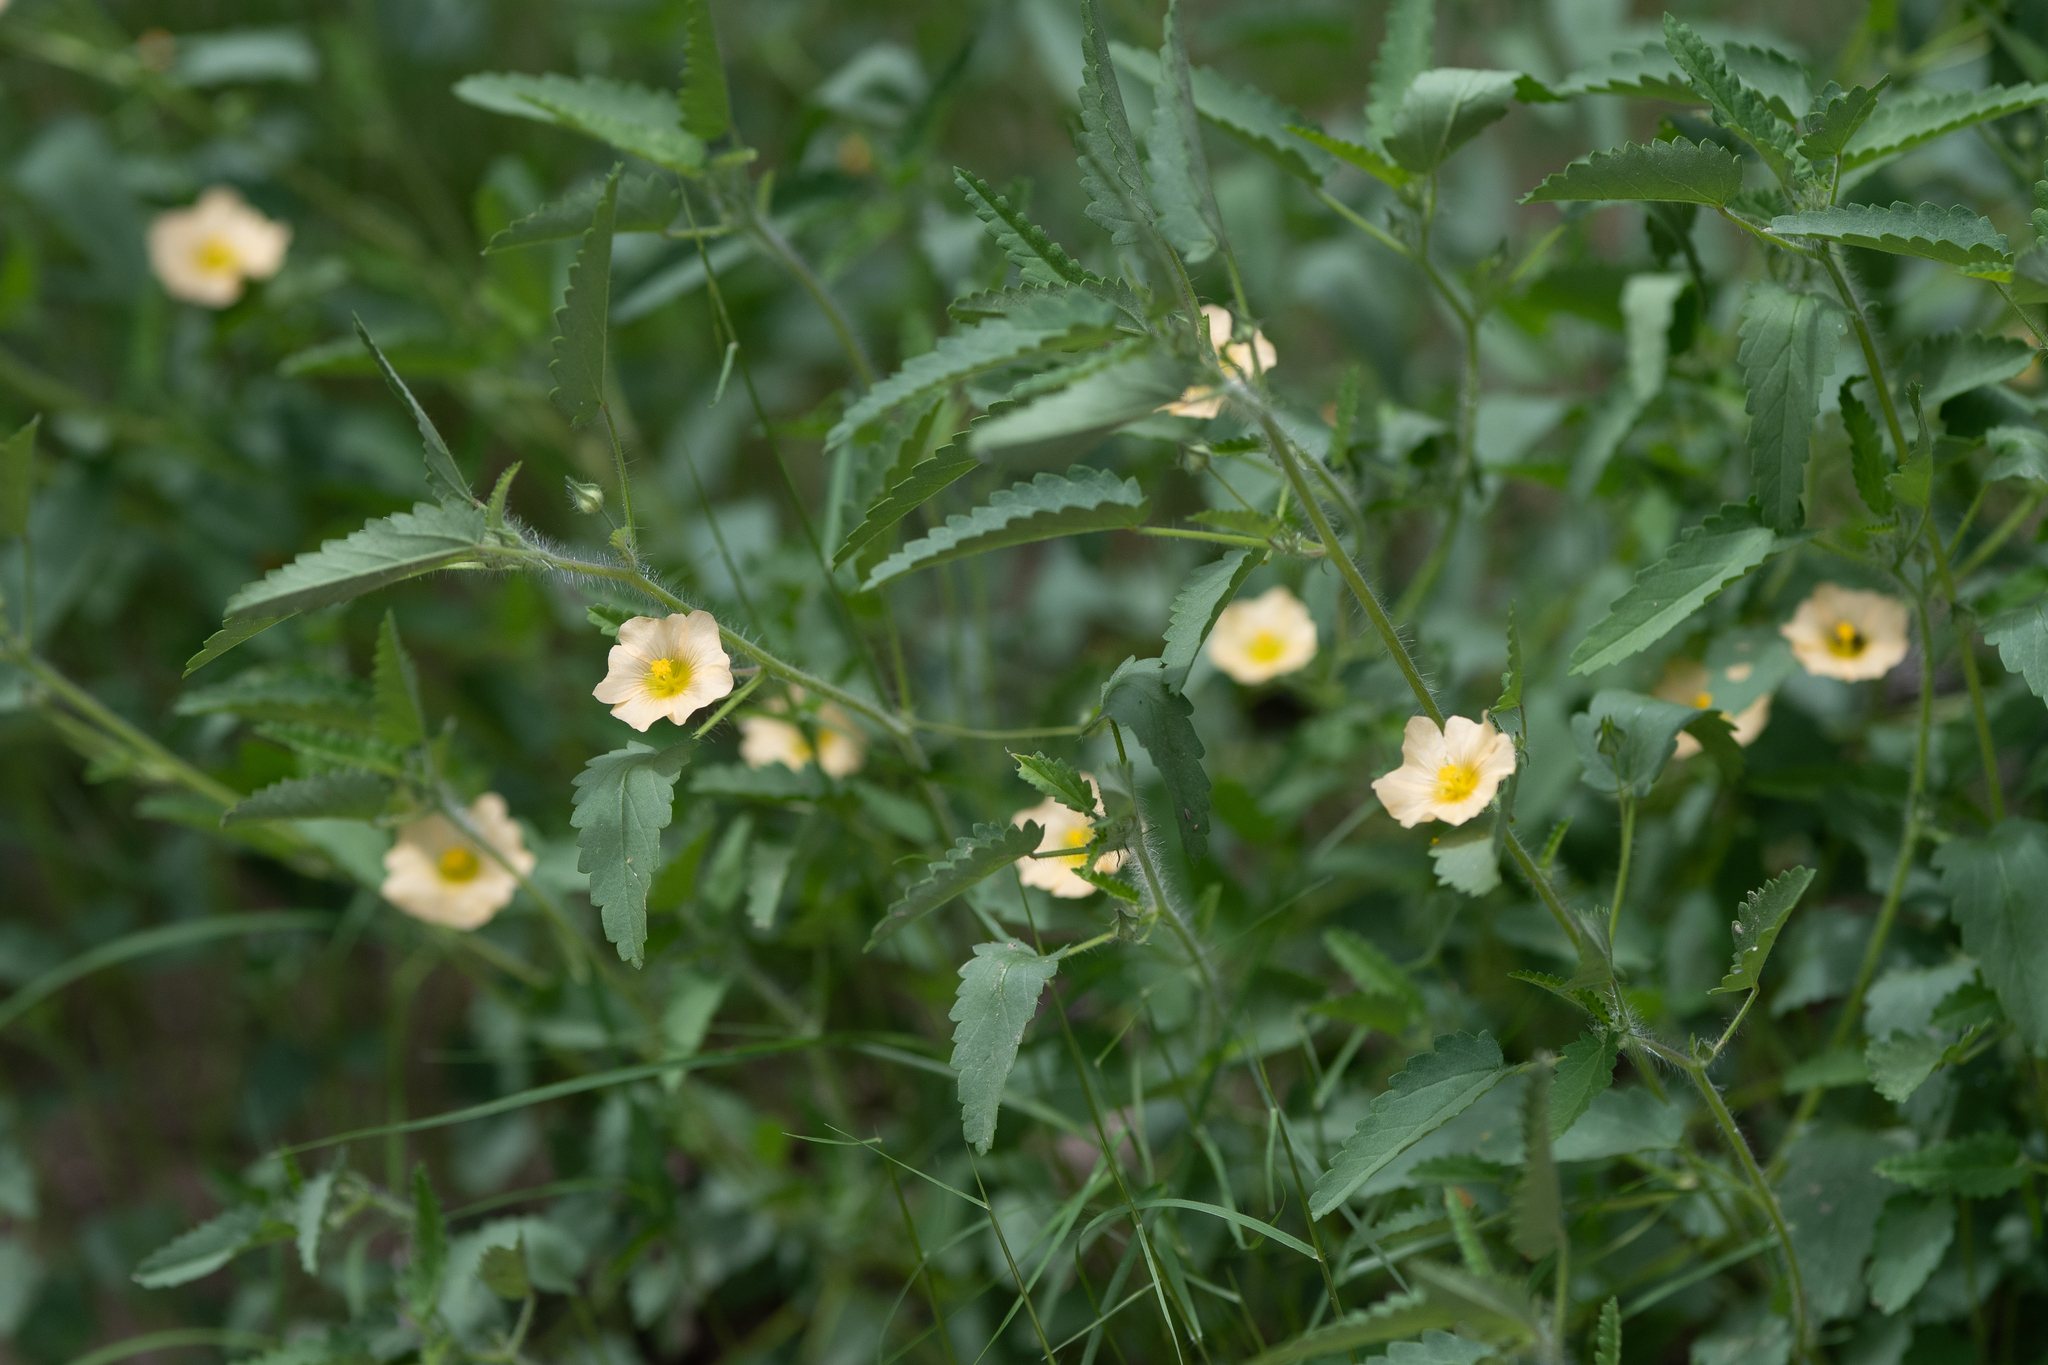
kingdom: Plantae
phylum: Tracheophyta
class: Magnoliopsida
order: Malvales
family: Malvaceae
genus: Sida
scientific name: Sida abutilifolia
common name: Spreading fanpetals
